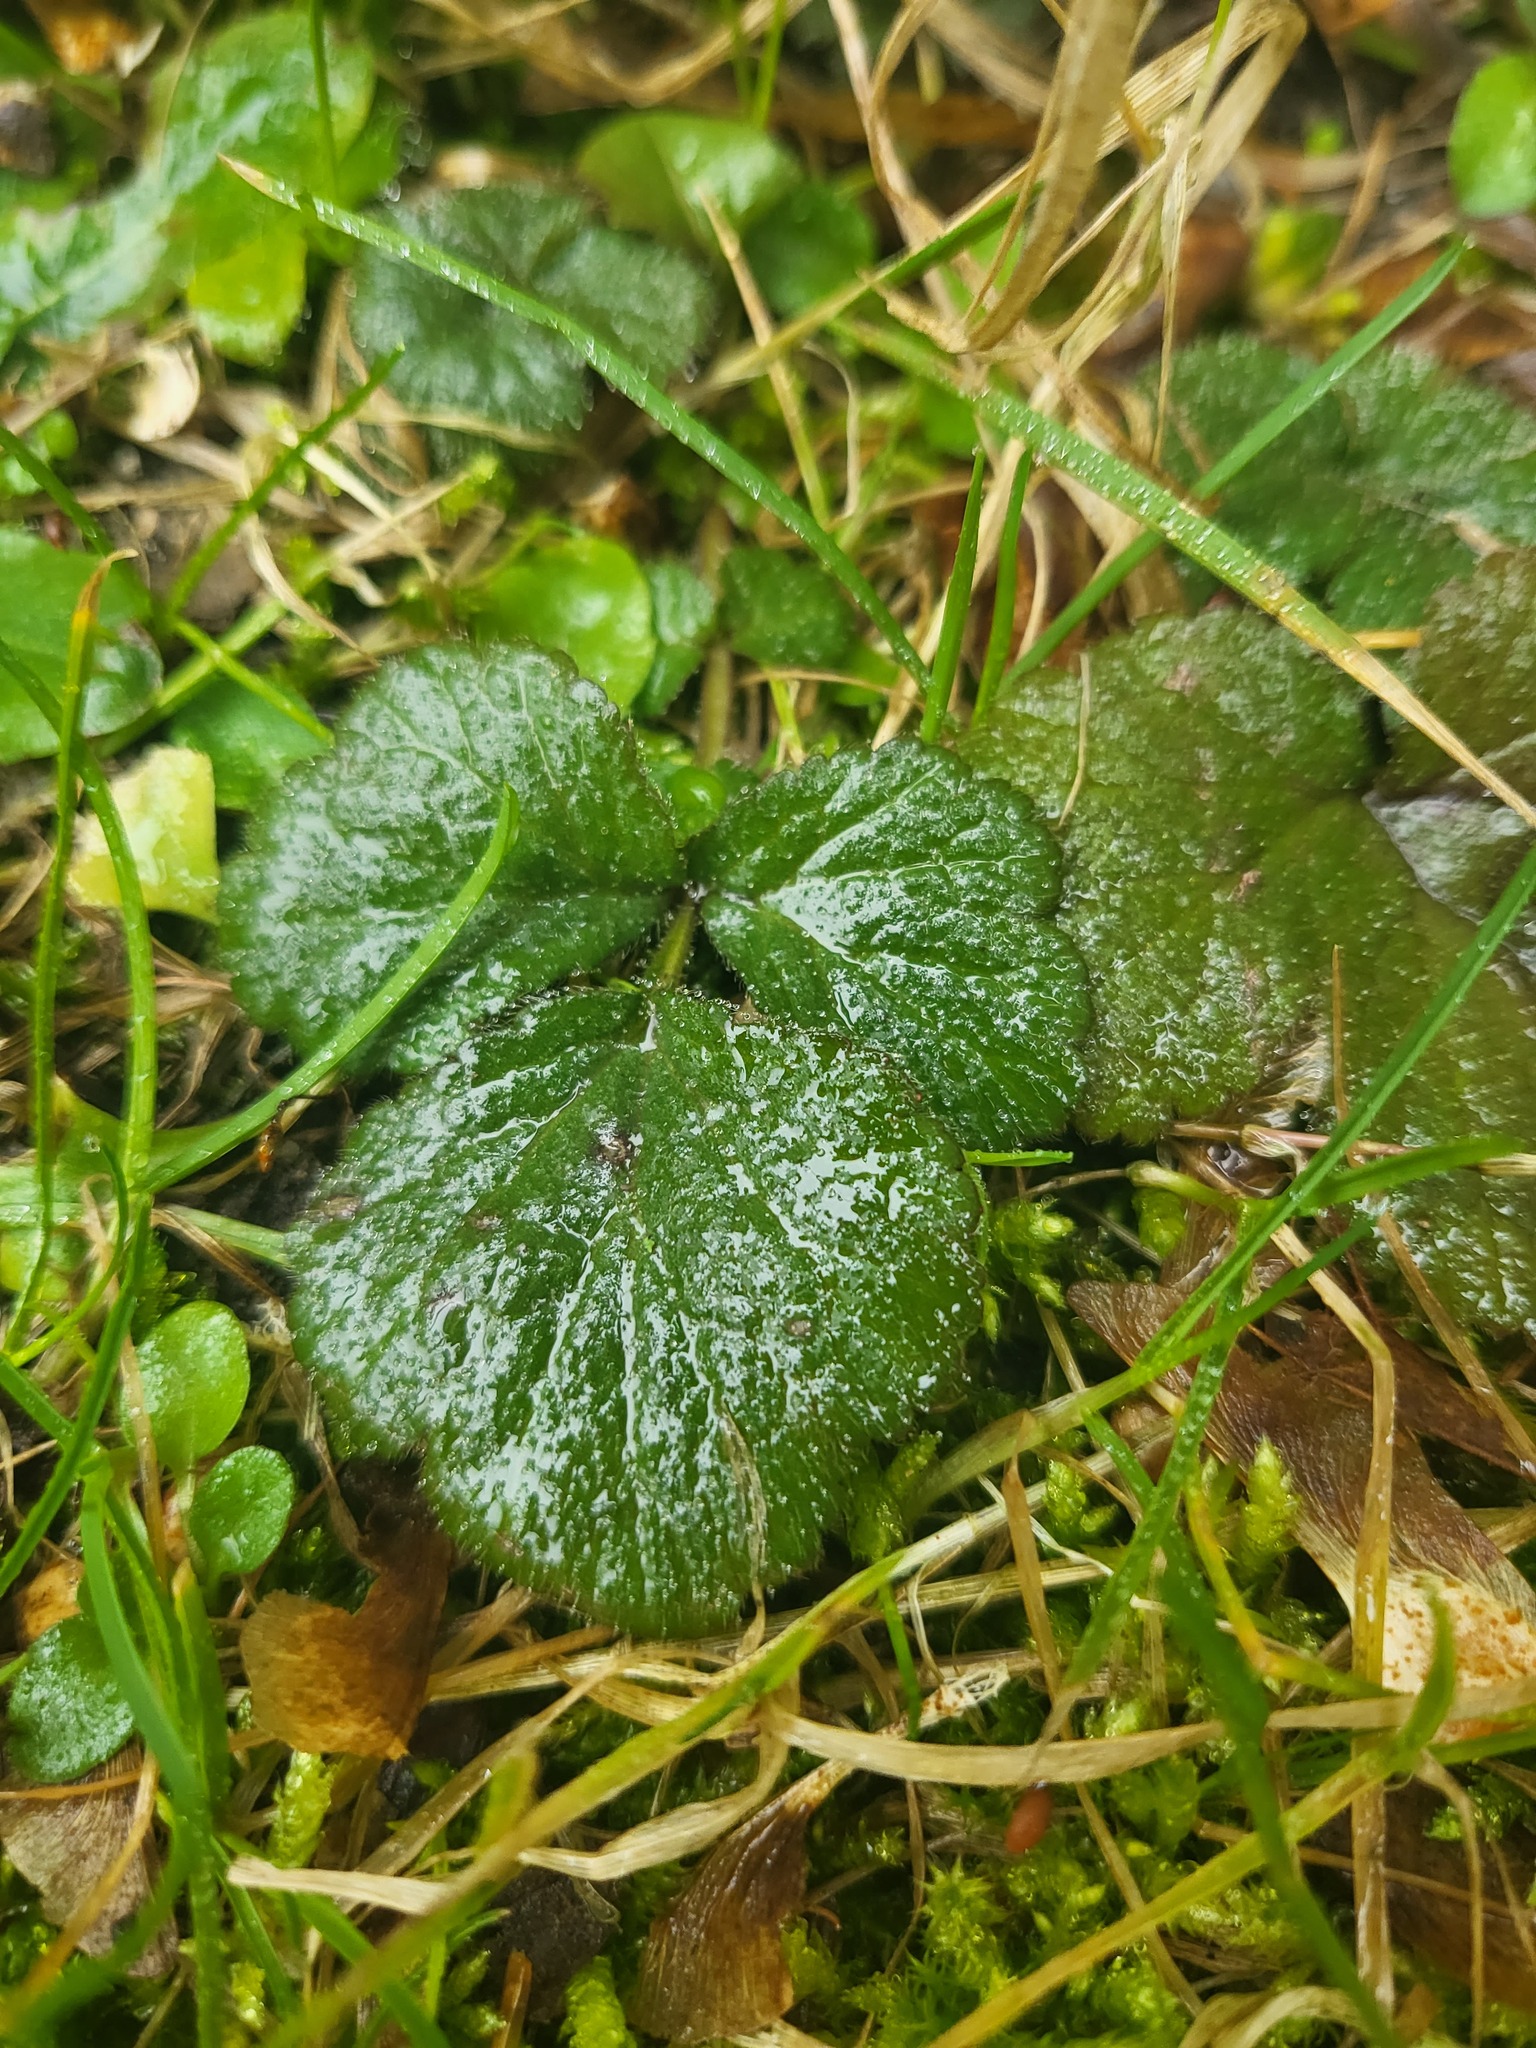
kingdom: Plantae
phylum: Tracheophyta
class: Magnoliopsida
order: Rosales
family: Rosaceae
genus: Geum
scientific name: Geum urbanum
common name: Wood avens
